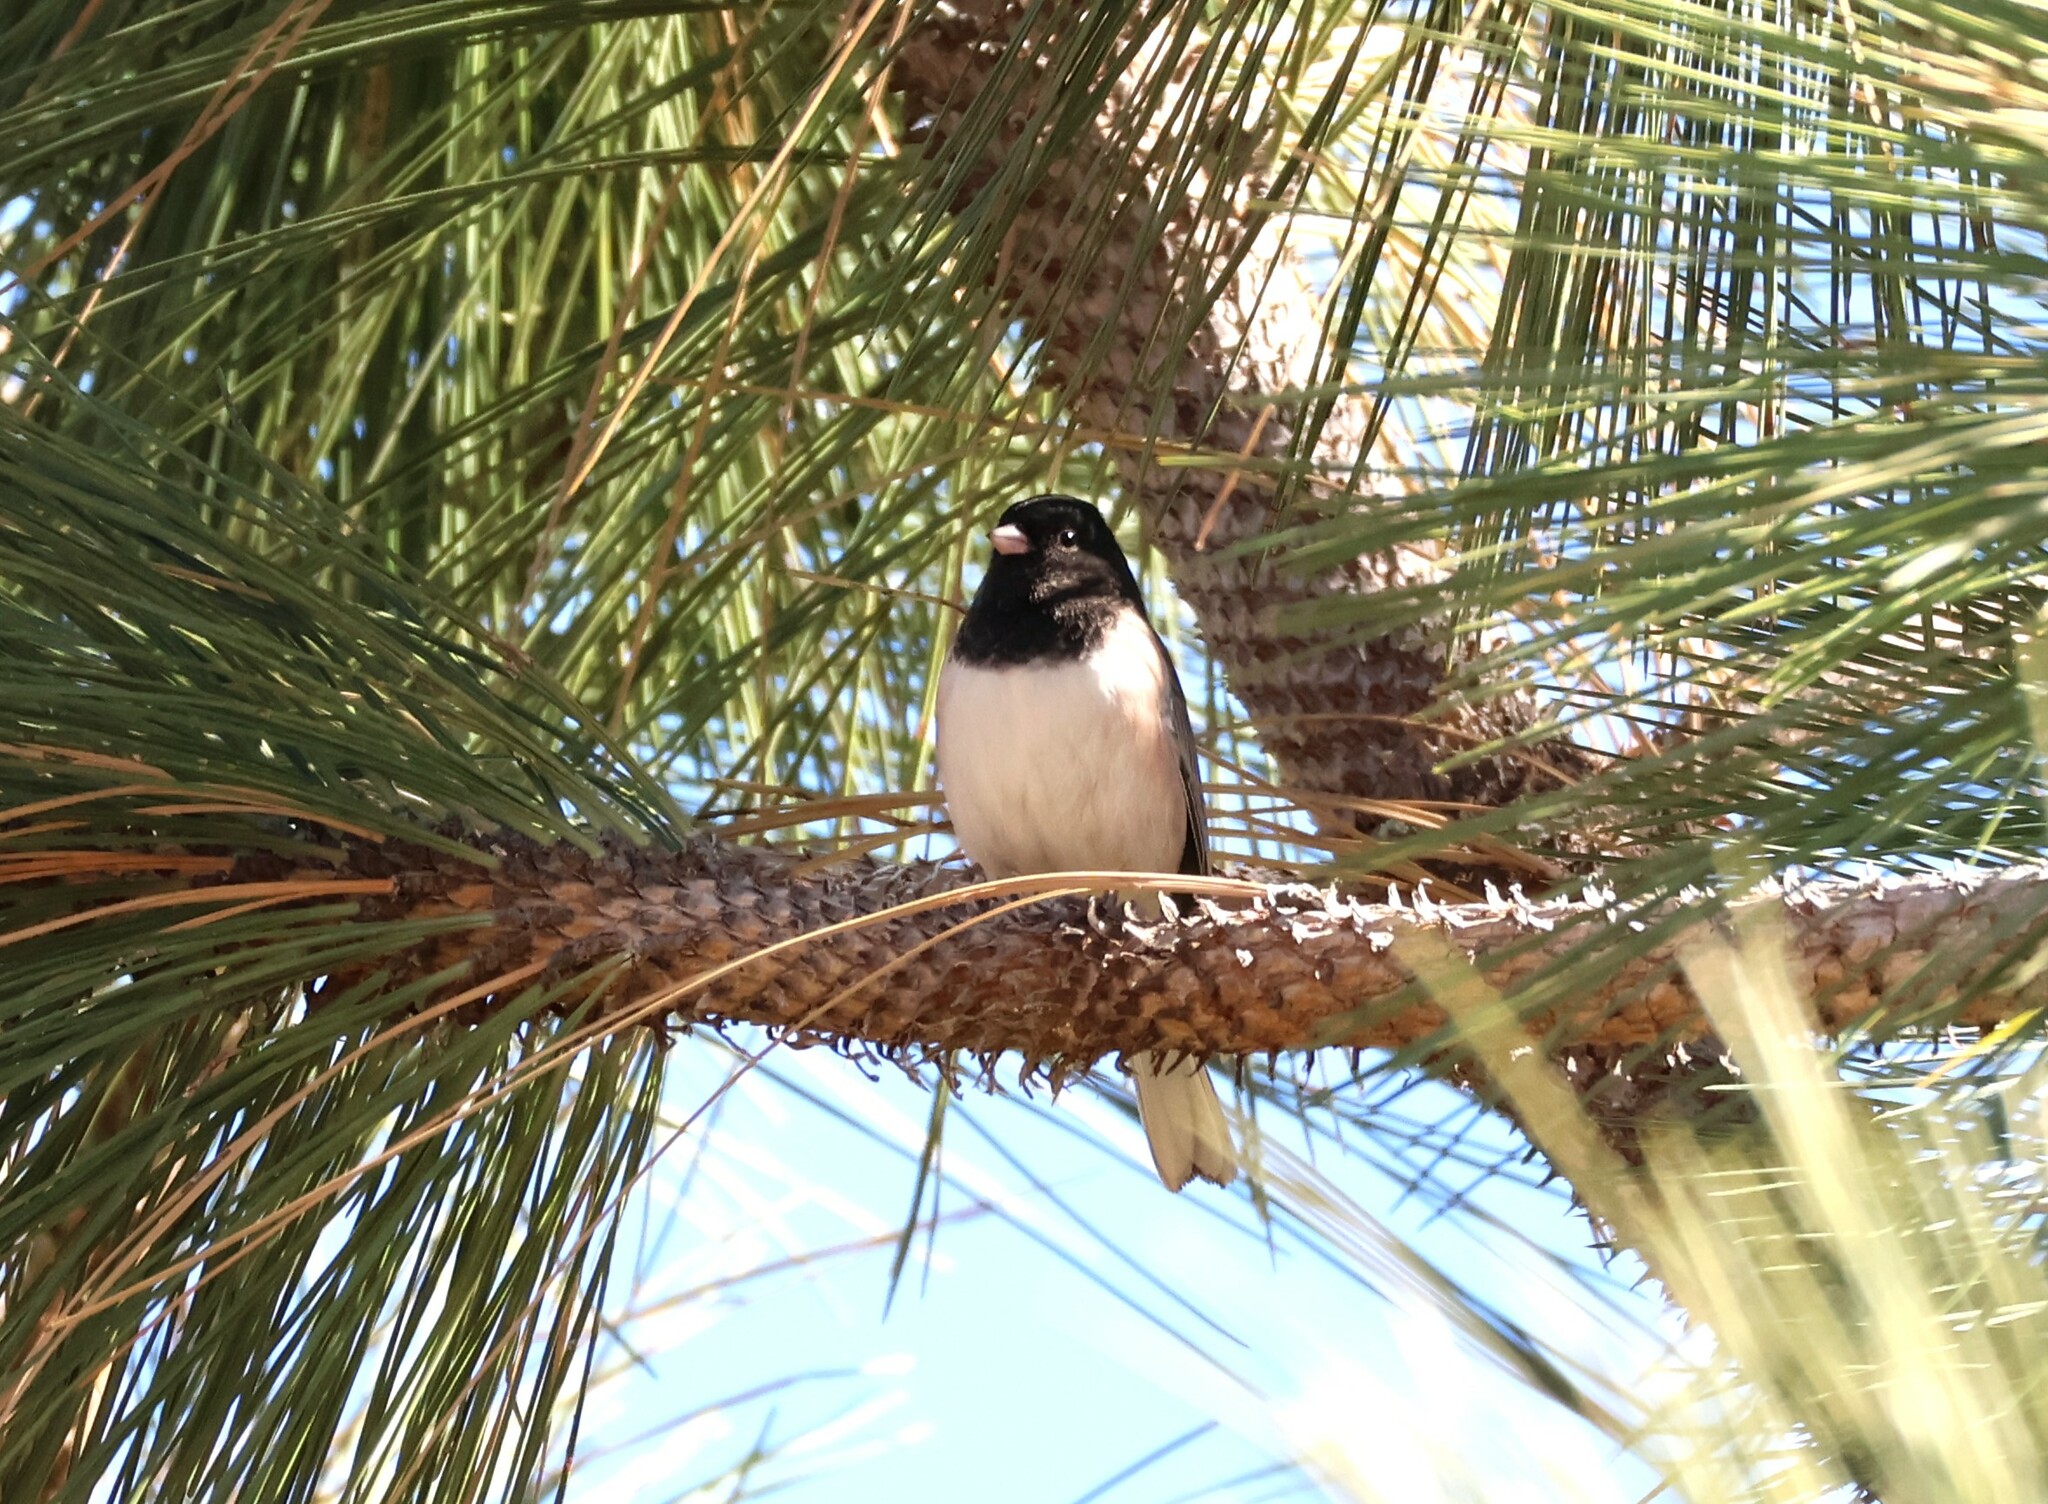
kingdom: Animalia
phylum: Chordata
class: Aves
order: Passeriformes
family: Passerellidae
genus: Junco
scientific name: Junco hyemalis
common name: Dark-eyed junco
